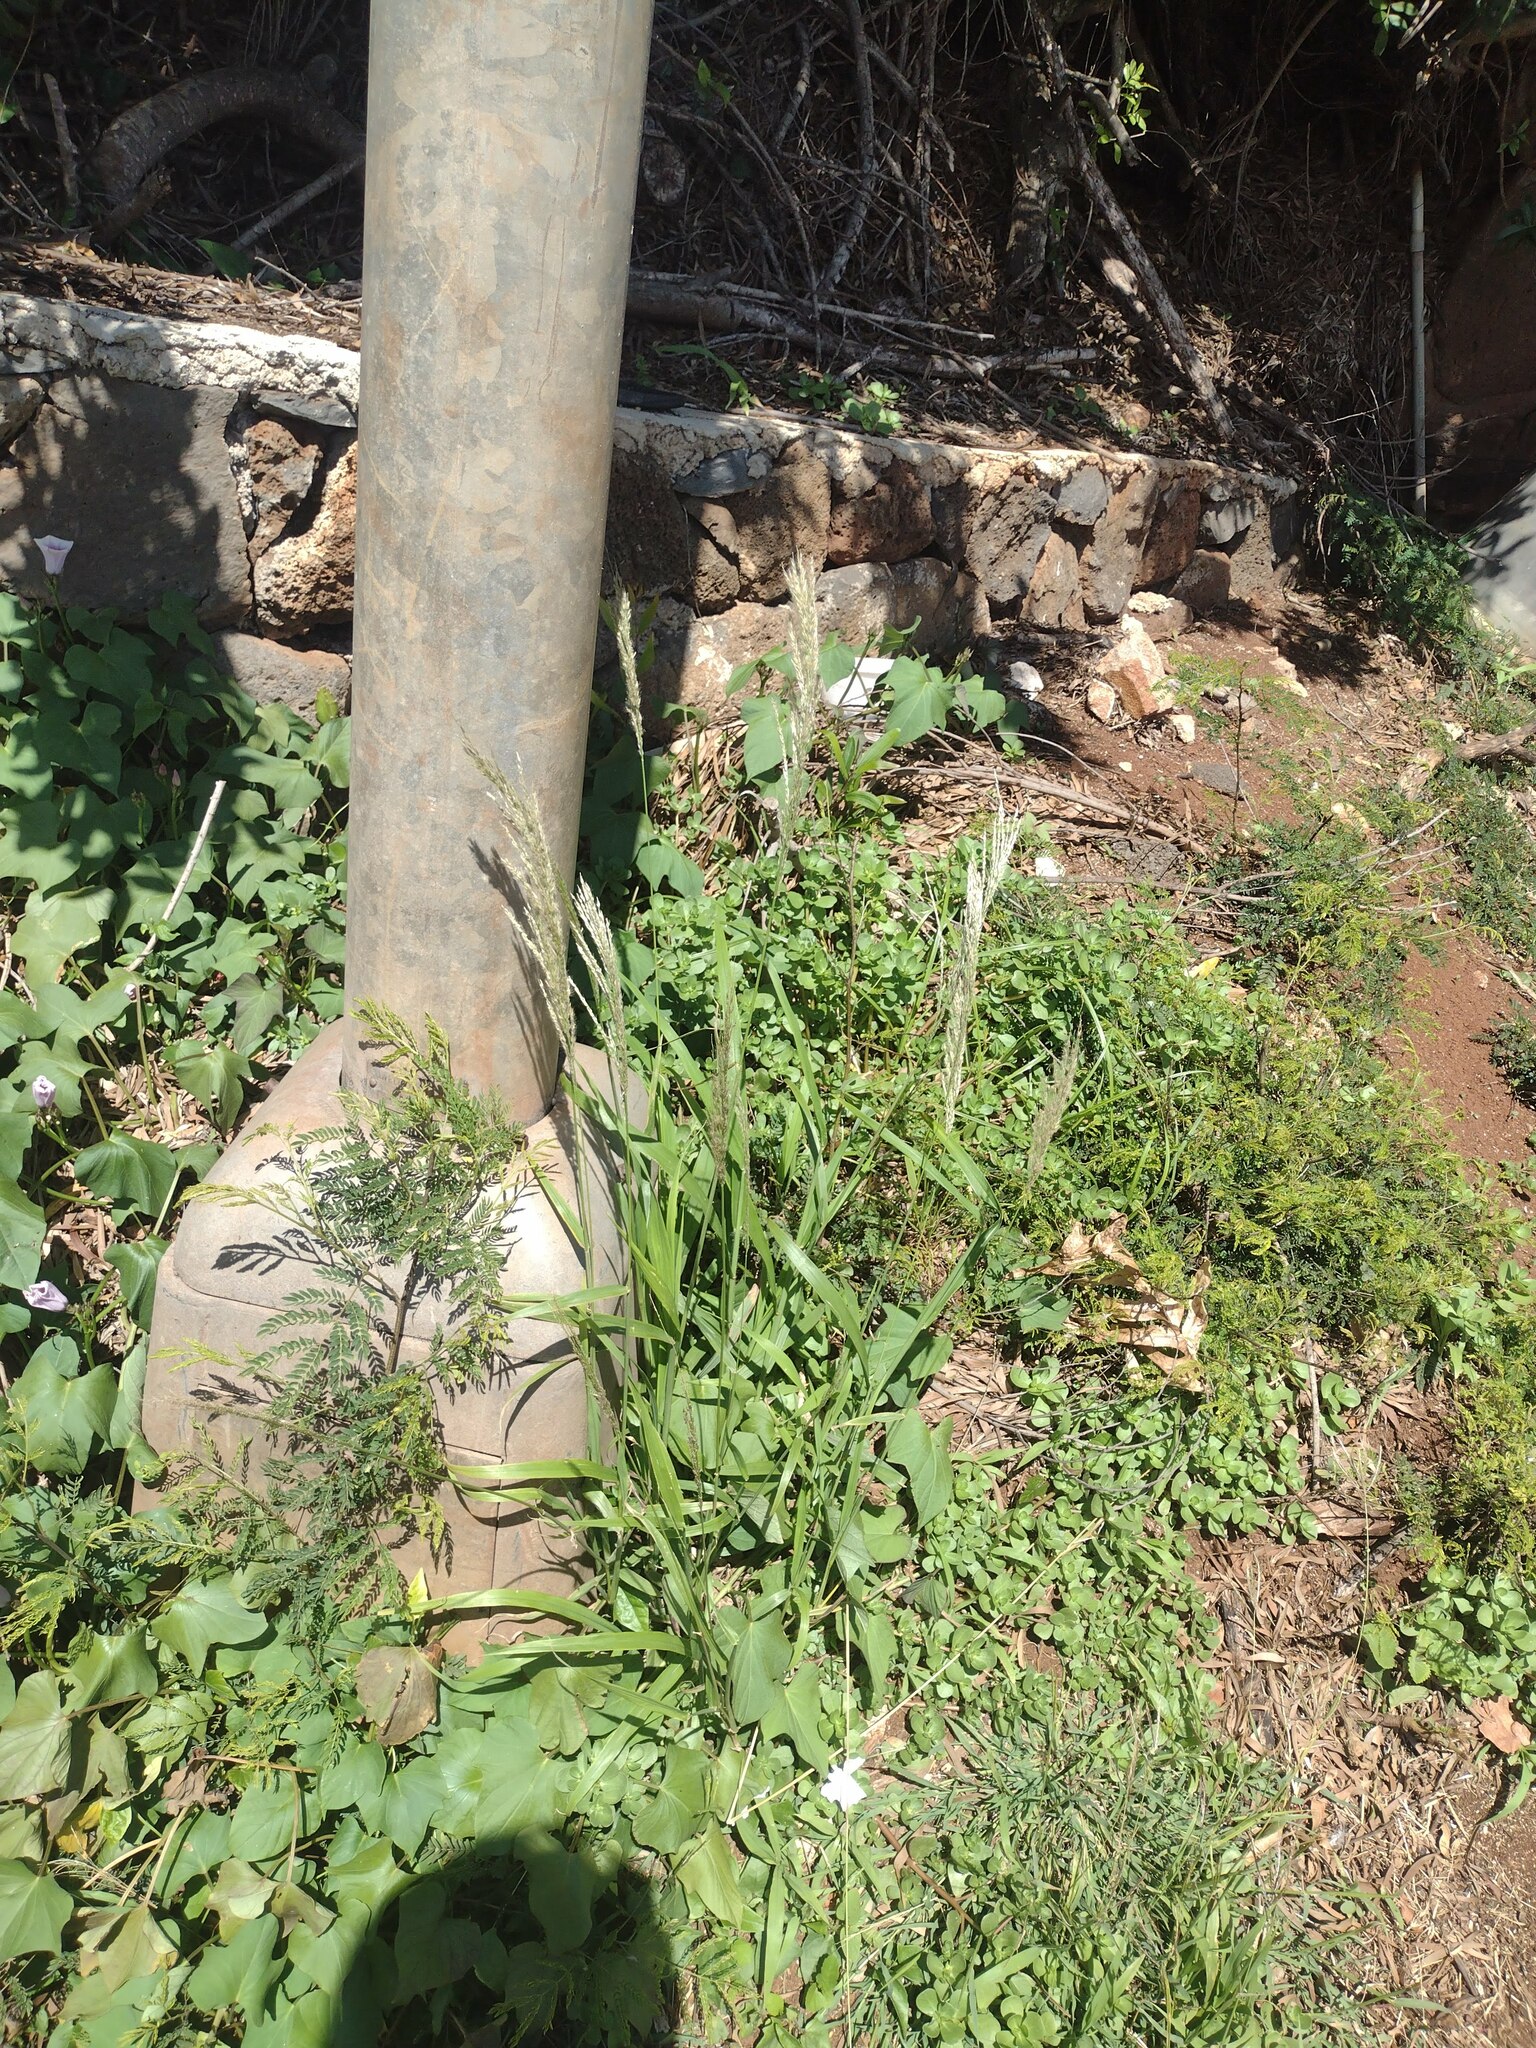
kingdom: Plantae
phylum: Tracheophyta
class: Liliopsida
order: Poales
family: Poaceae
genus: Digitaria
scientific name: Digitaria insularis
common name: Sourgrass
